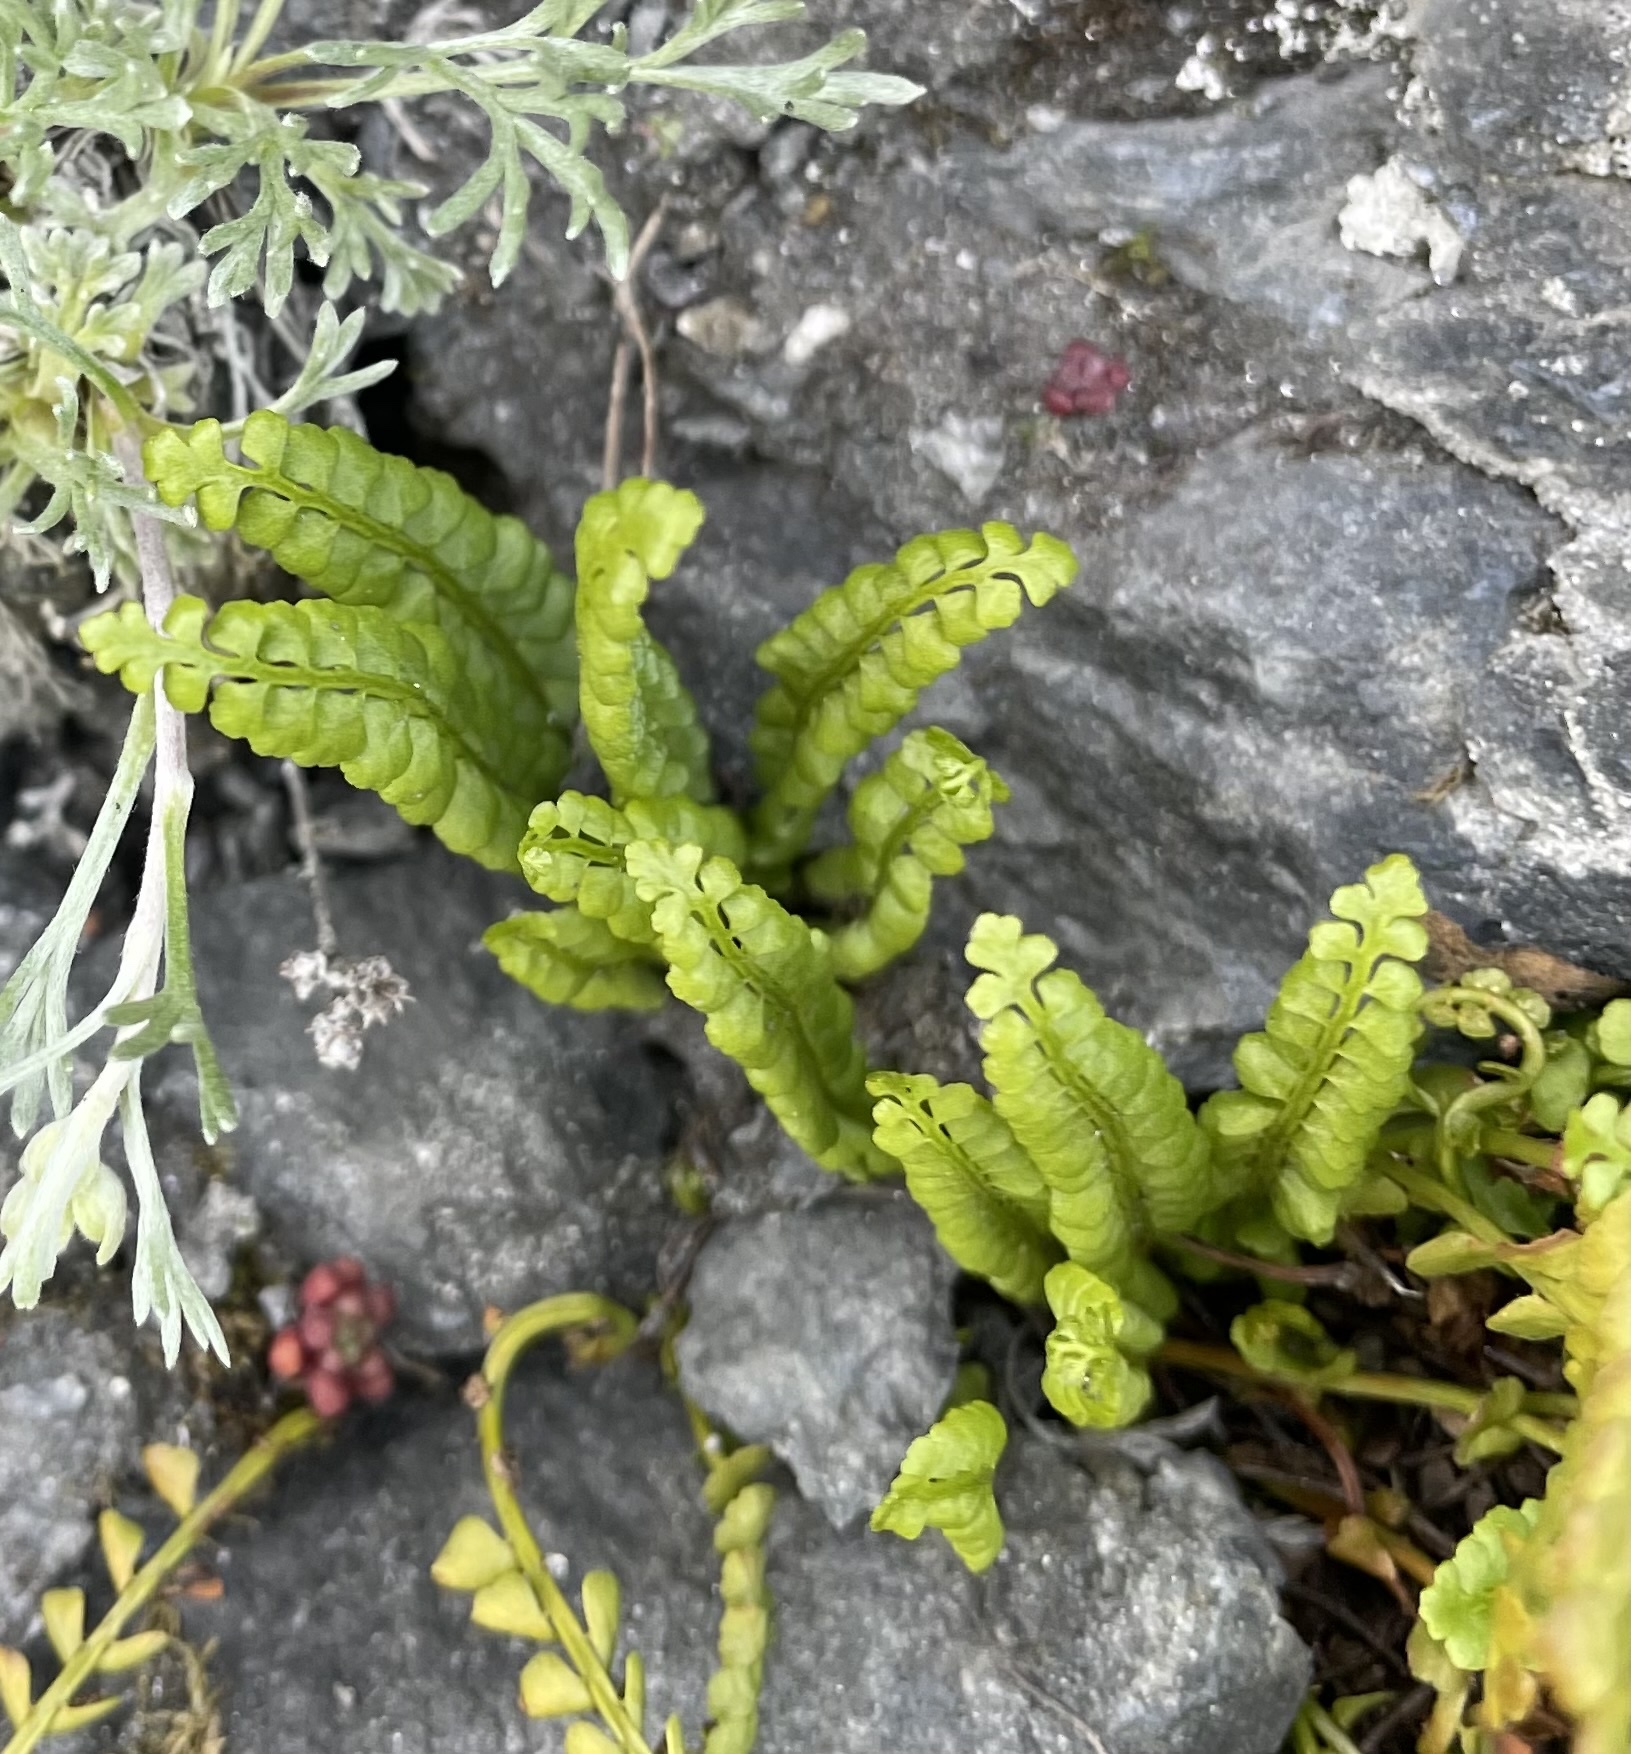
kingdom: Plantae
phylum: Tracheophyta
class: Polypodiopsida
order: Polypodiales
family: Aspleniaceae
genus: Asplenium
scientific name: Asplenium viride
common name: Green spleenwort
